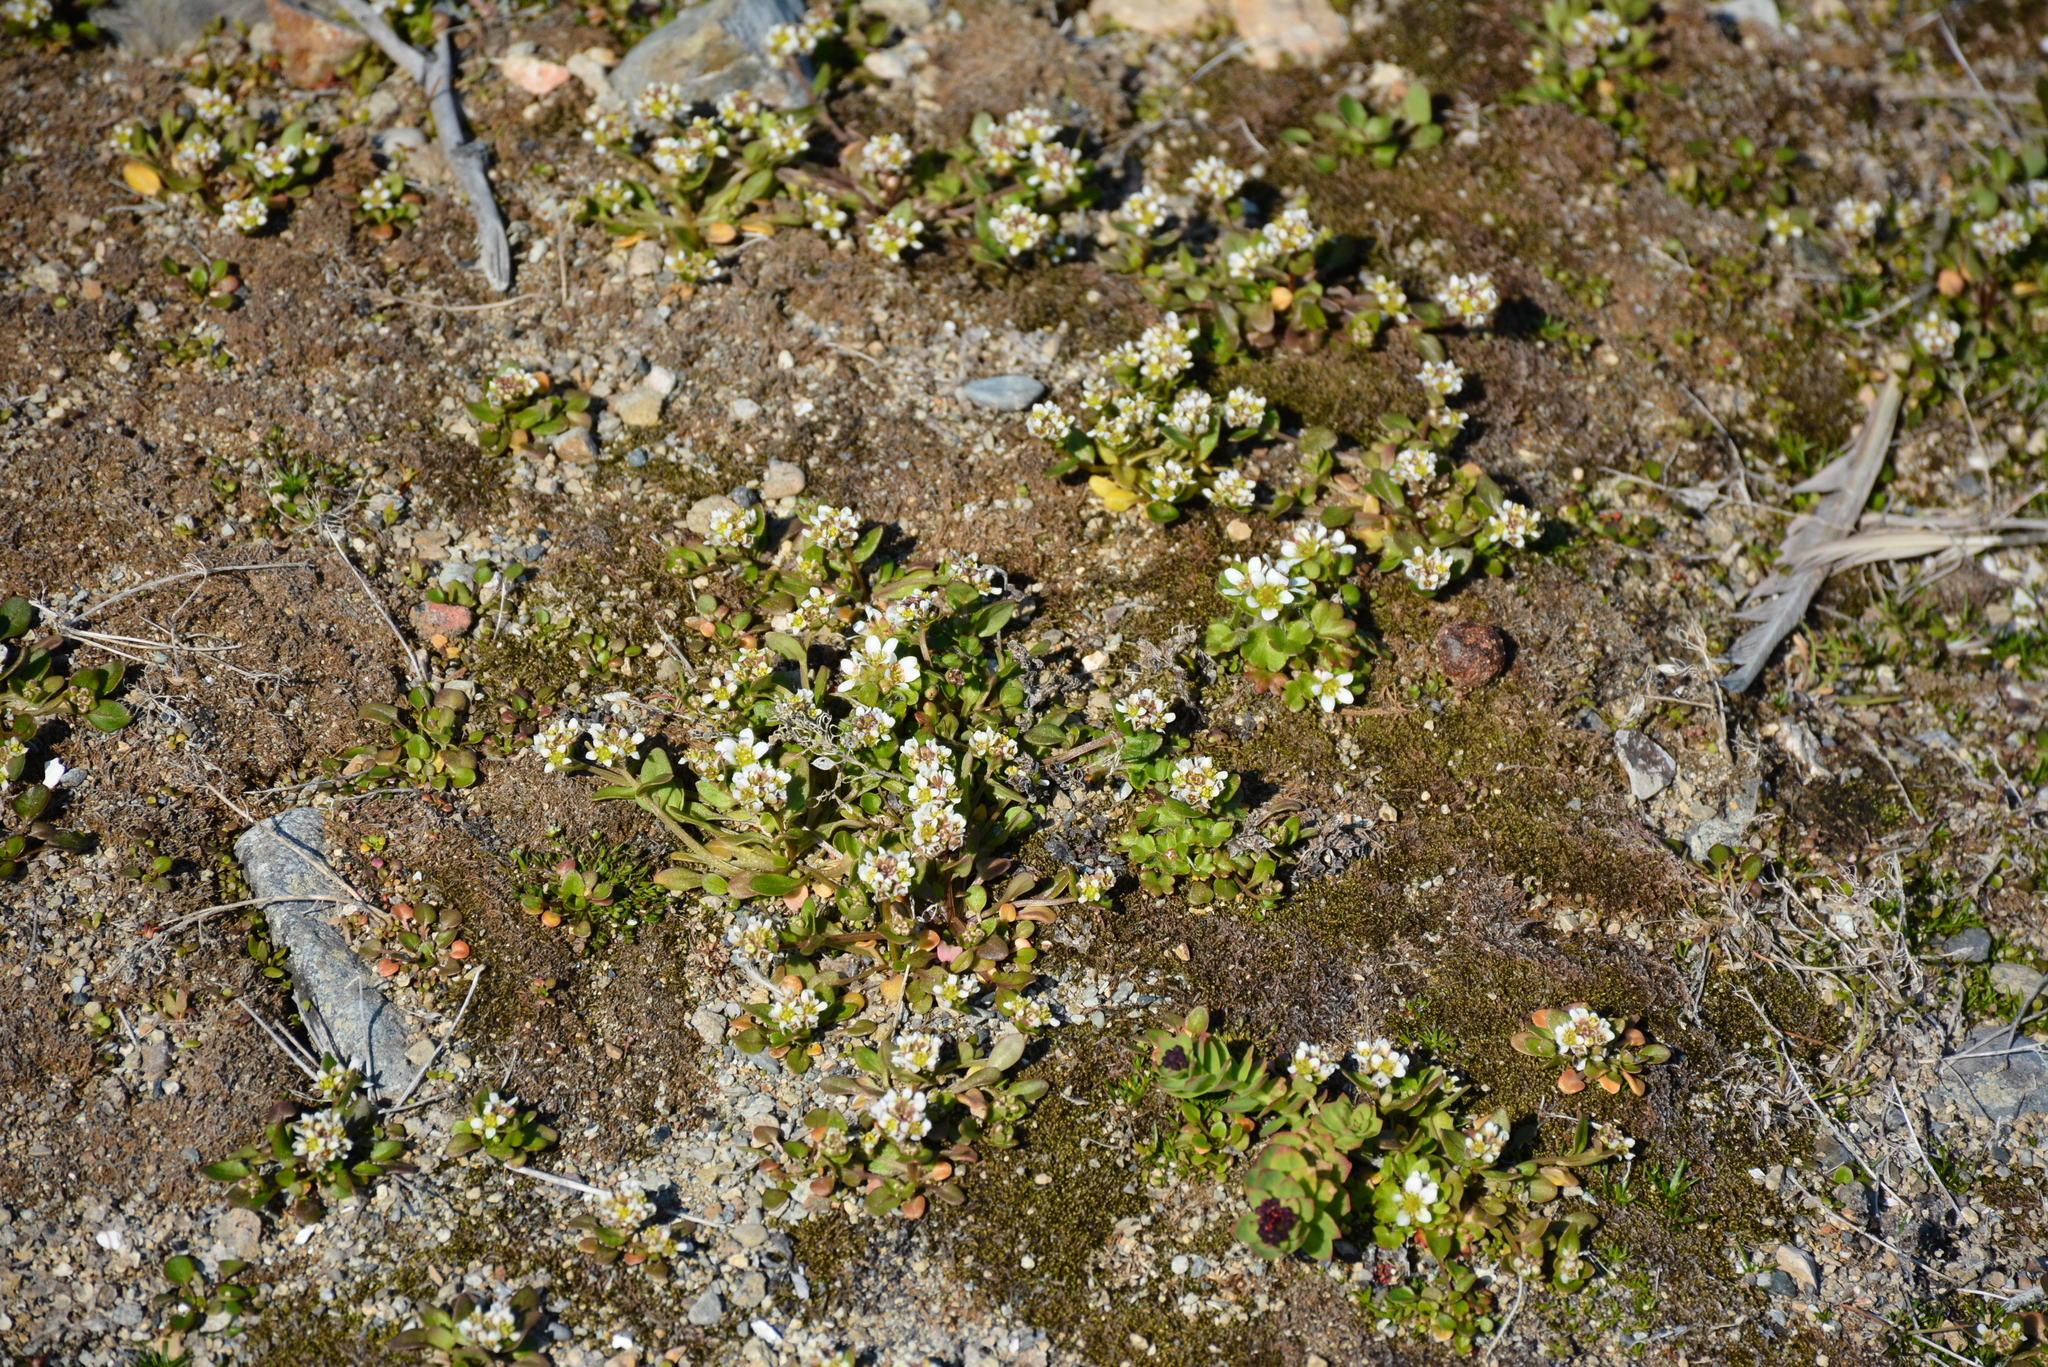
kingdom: Plantae
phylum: Tracheophyta
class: Magnoliopsida
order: Saxifragales
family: Saxifragaceae
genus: Saxifraga
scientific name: Saxifraga rivularis
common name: Highland saxifrage
